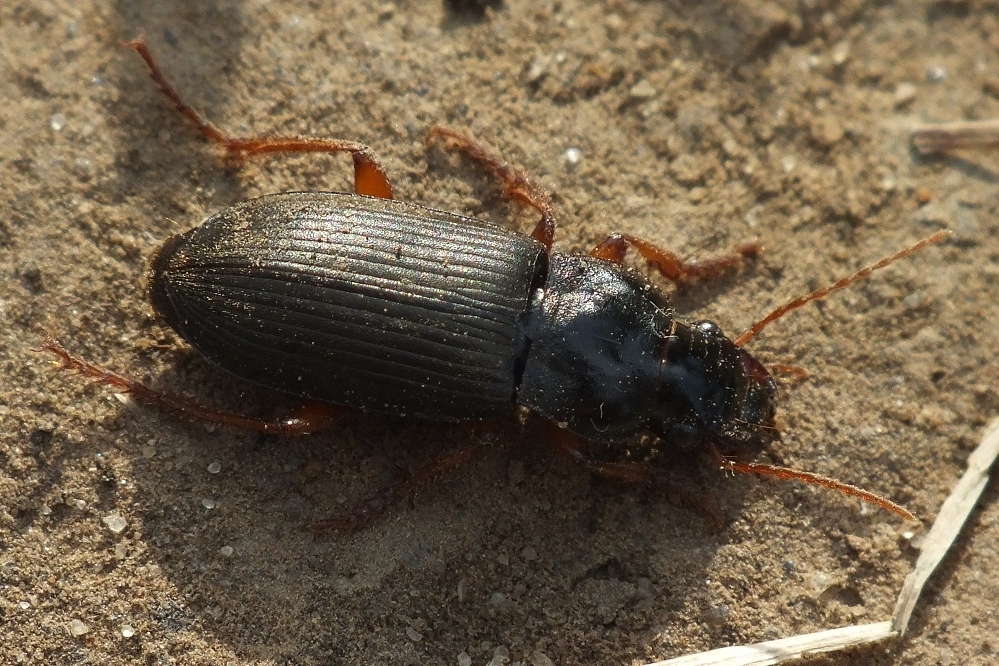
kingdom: Animalia
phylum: Arthropoda
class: Insecta
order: Coleoptera
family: Carabidae
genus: Harpalus
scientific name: Harpalus rufipes
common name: Strawberry harp ground beetle
